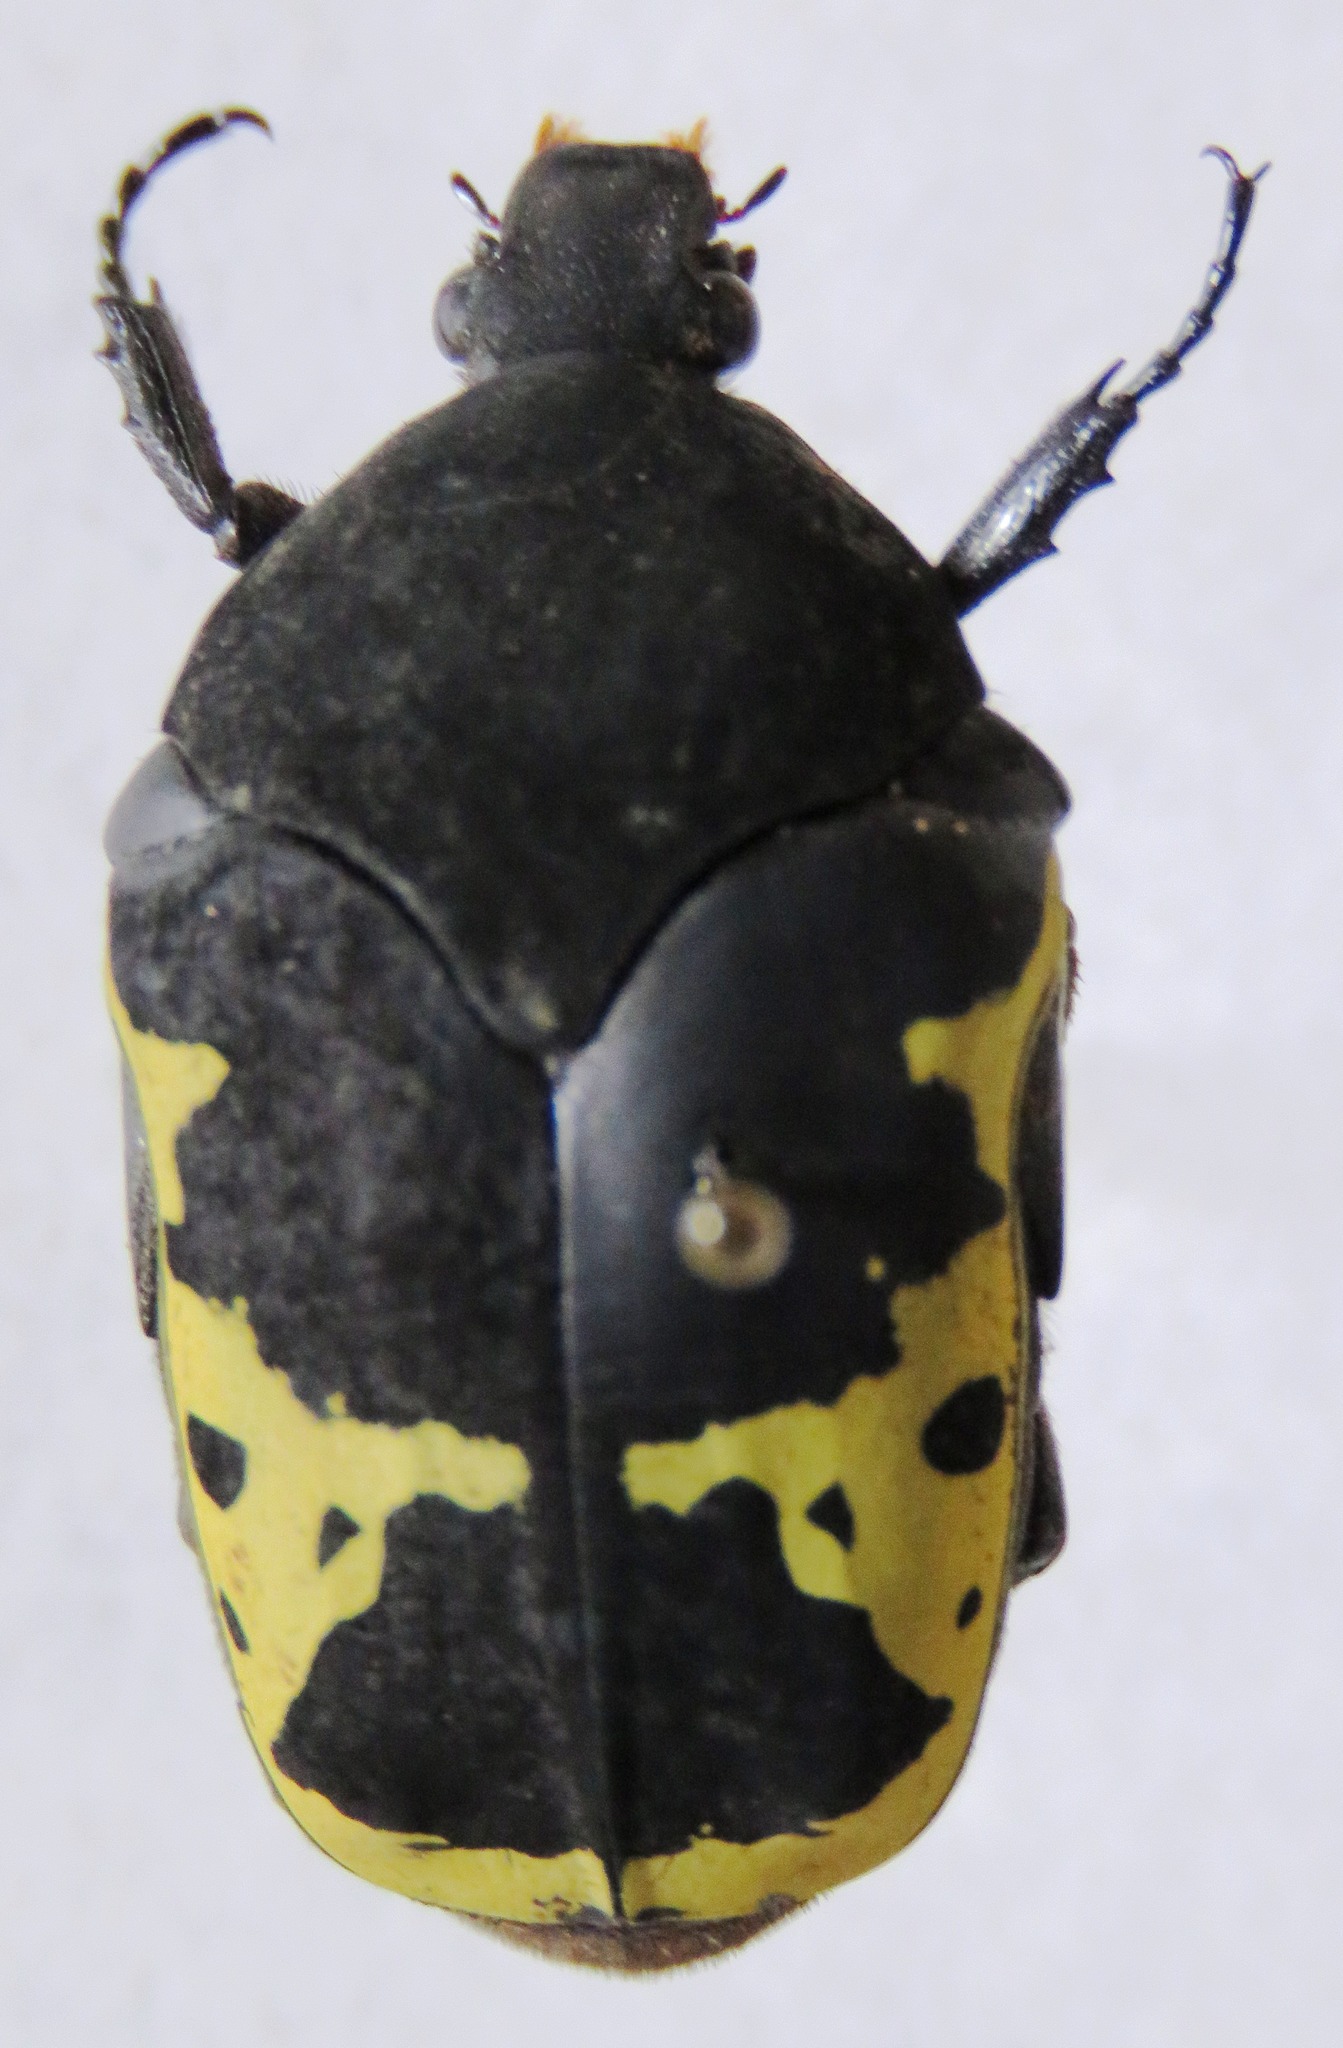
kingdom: Animalia
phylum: Arthropoda
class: Insecta
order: Coleoptera
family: Scarabaeidae
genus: Gymnetis
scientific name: Gymnetis ramulosa
